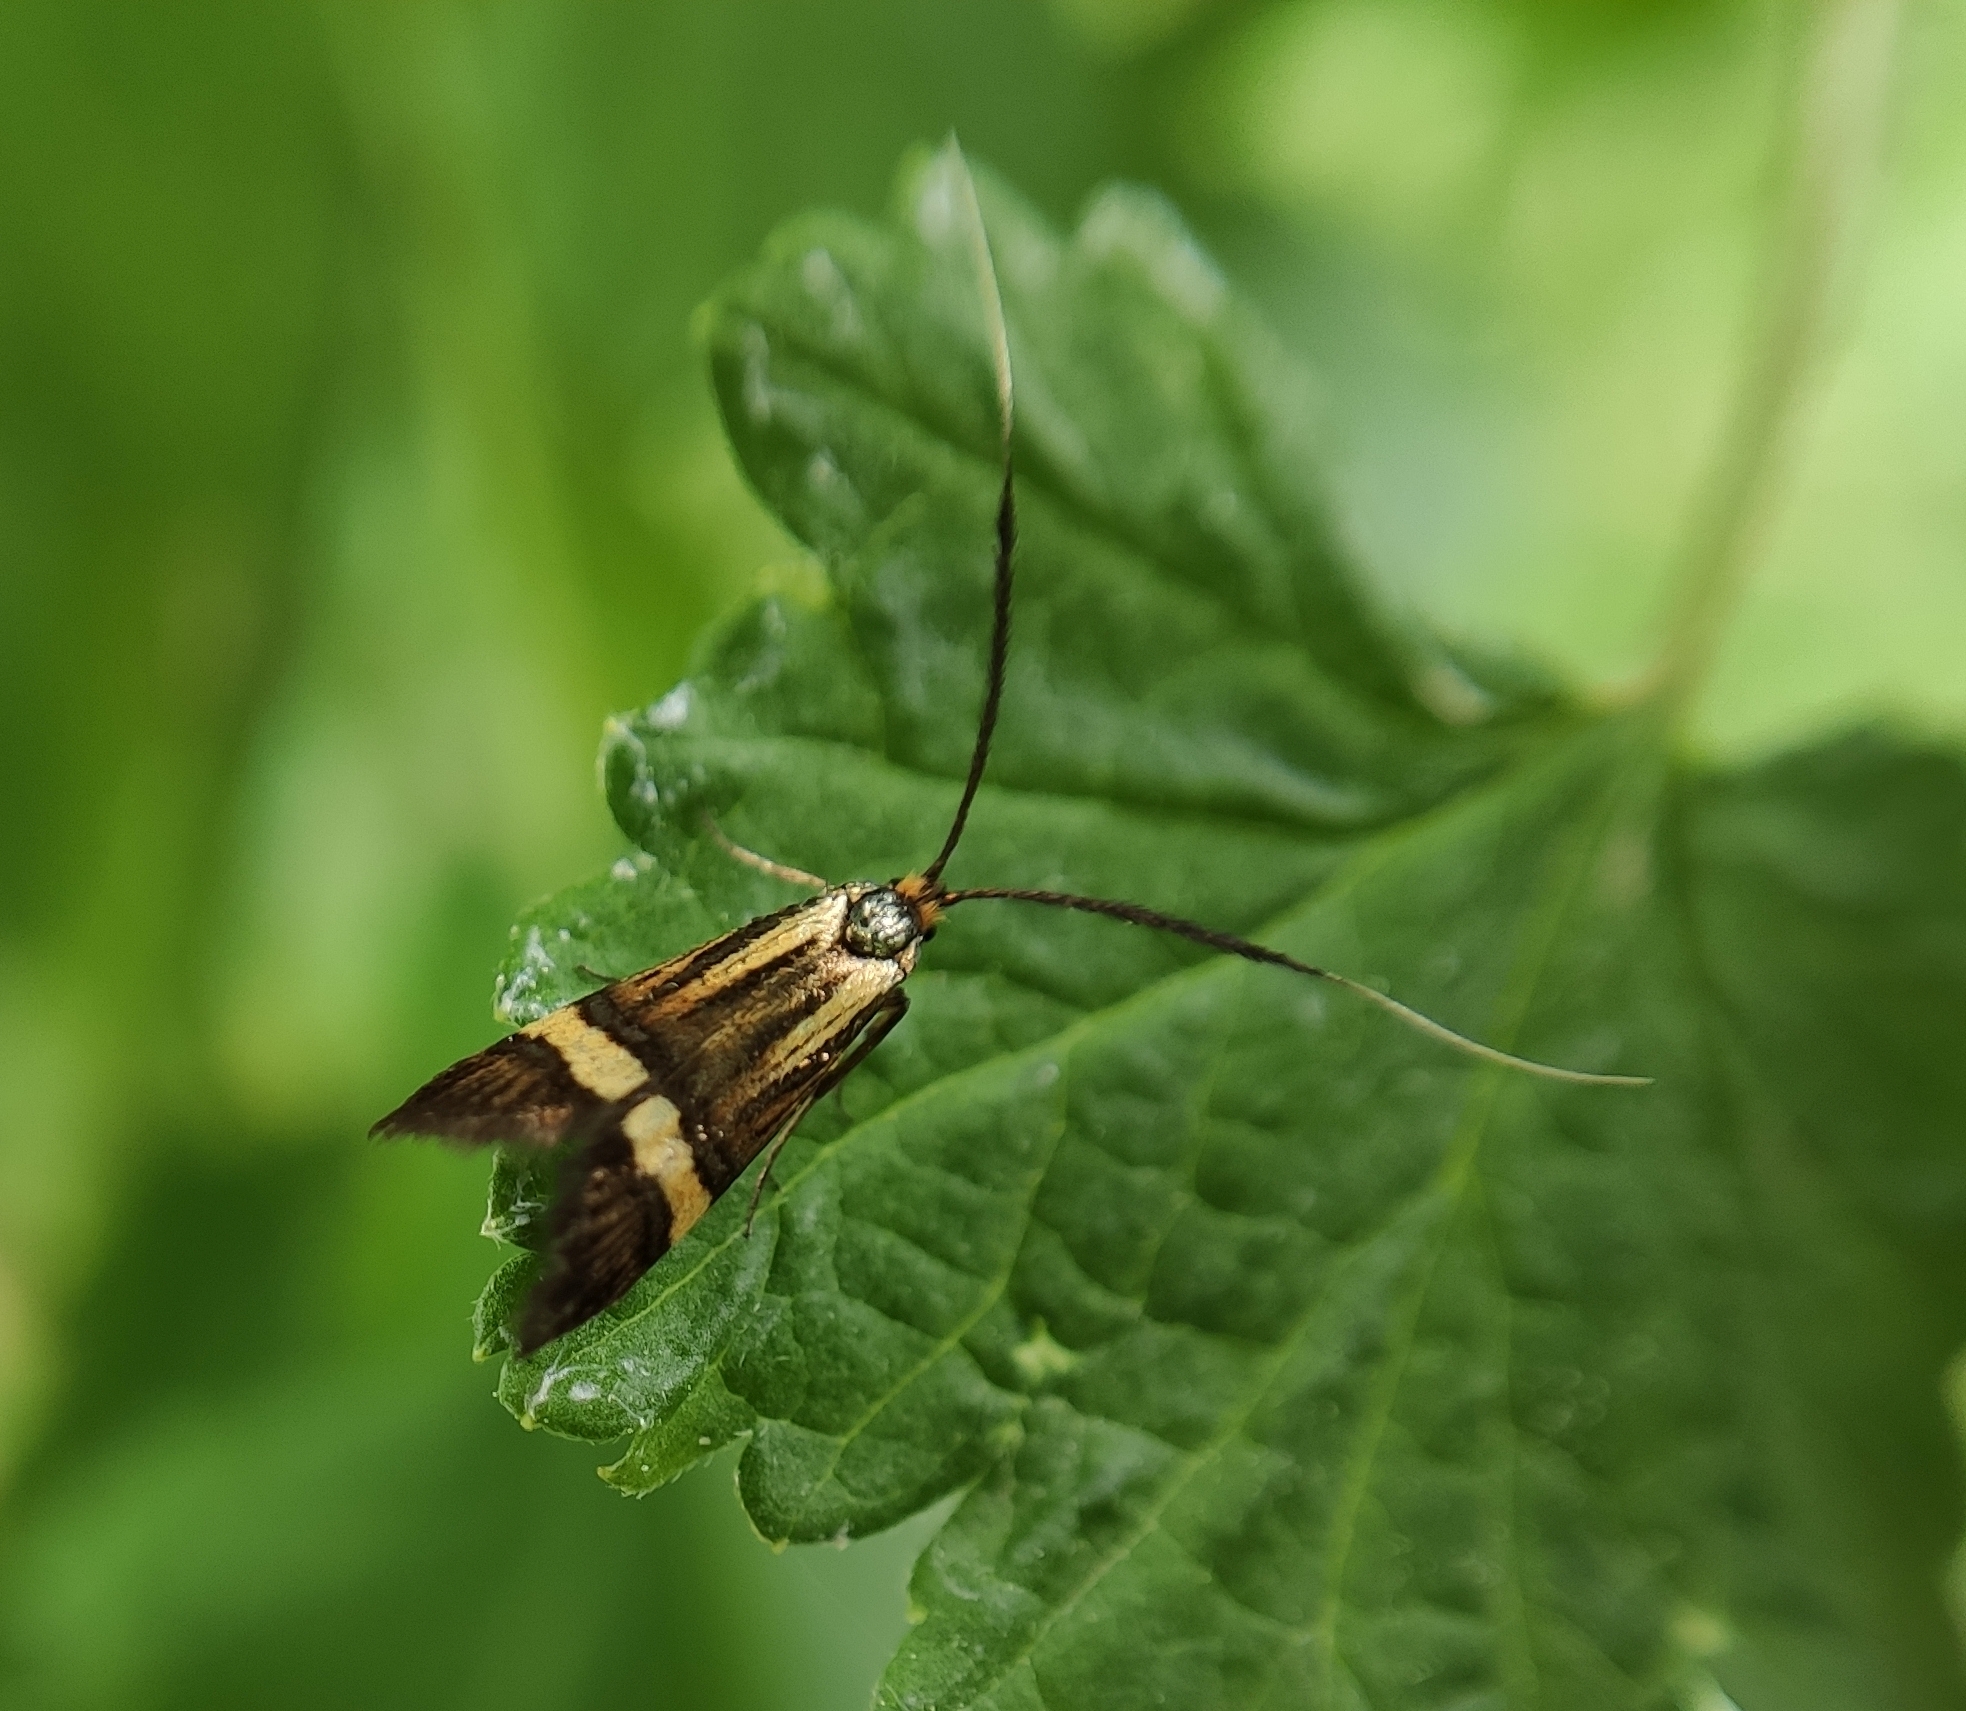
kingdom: Animalia
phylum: Arthropoda
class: Insecta
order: Lepidoptera
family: Adelidae
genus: Nemophora
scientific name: Nemophora degeerella
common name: Yellow-barred long-horn
